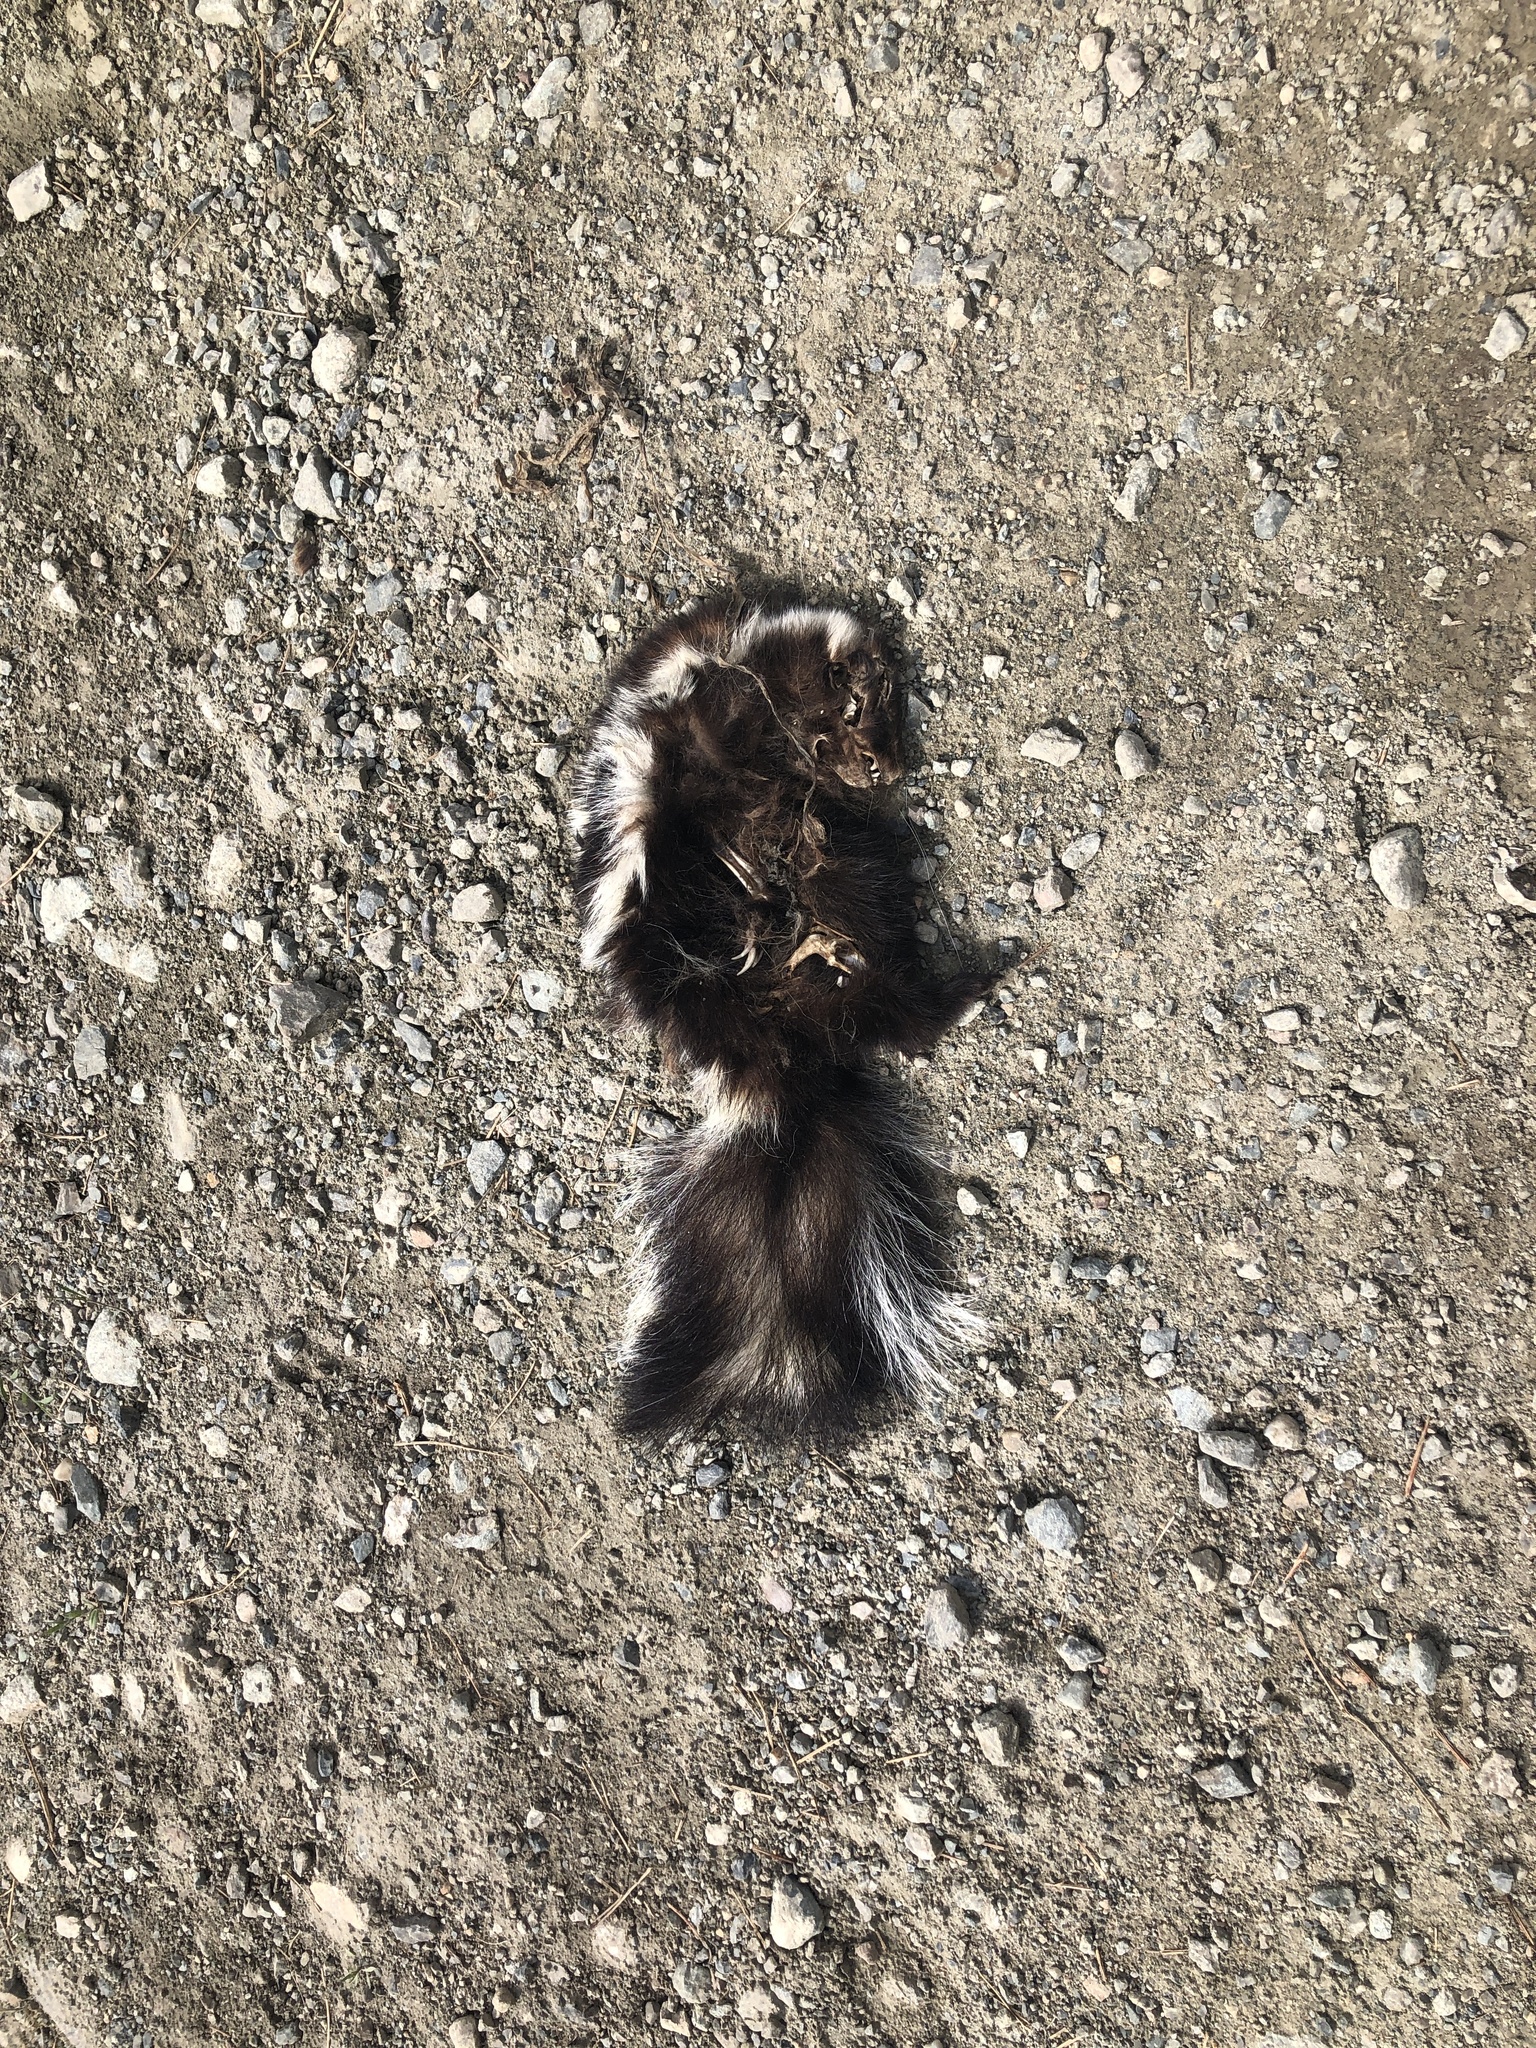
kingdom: Animalia
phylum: Chordata
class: Mammalia
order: Carnivora
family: Mephitidae
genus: Mephitis
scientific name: Mephitis mephitis
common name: Striped skunk
